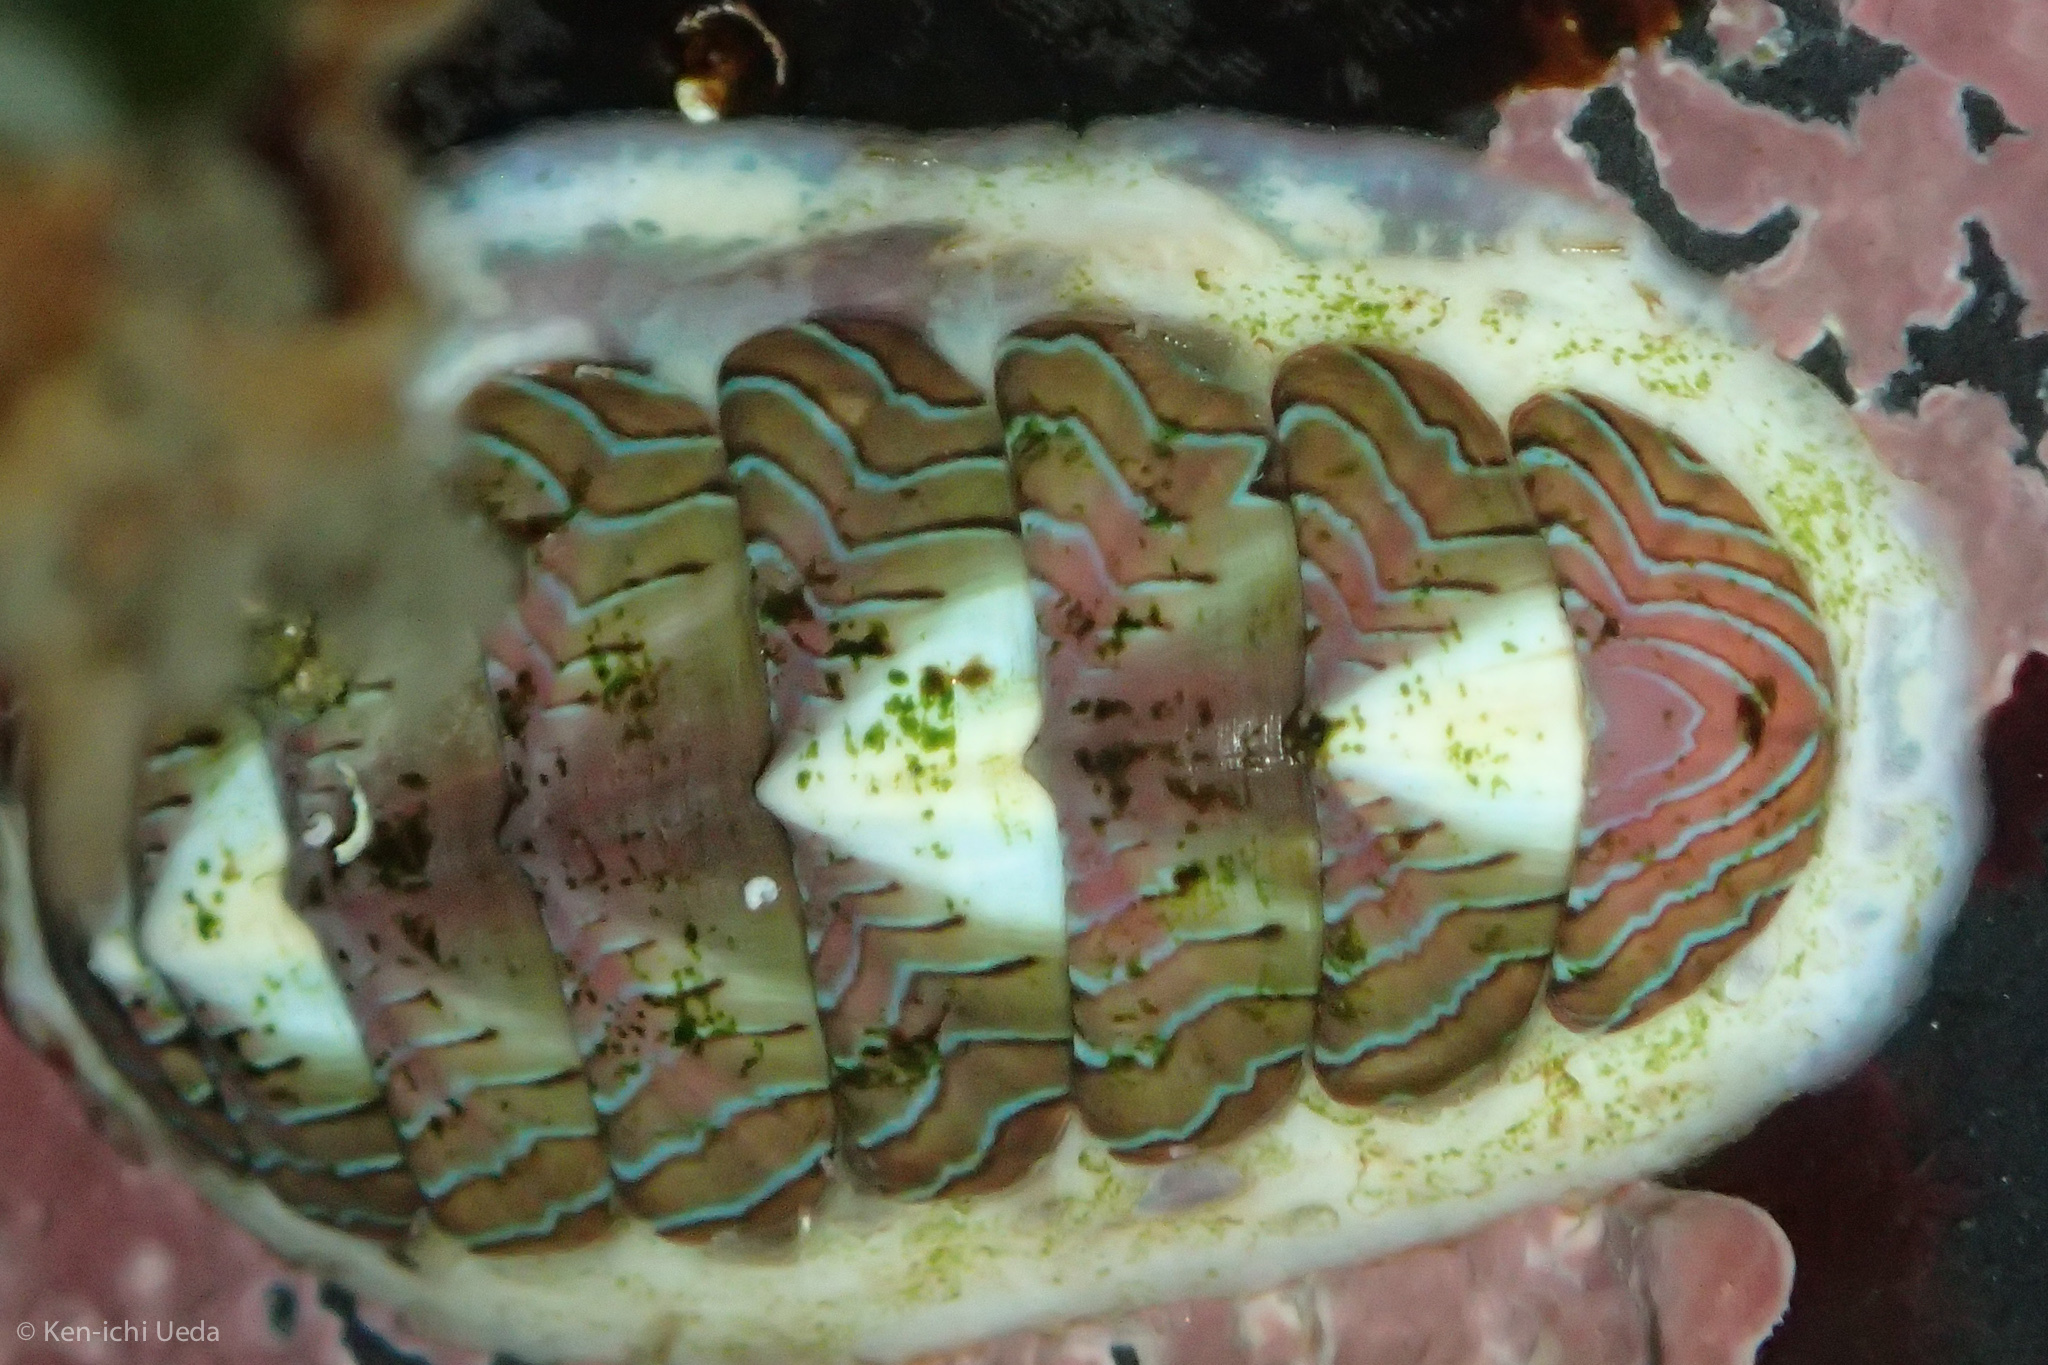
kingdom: Animalia
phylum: Mollusca
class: Polyplacophora
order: Chitonida
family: Tonicellidae
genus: Tonicella
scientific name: Tonicella lineata
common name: Lined chiton
